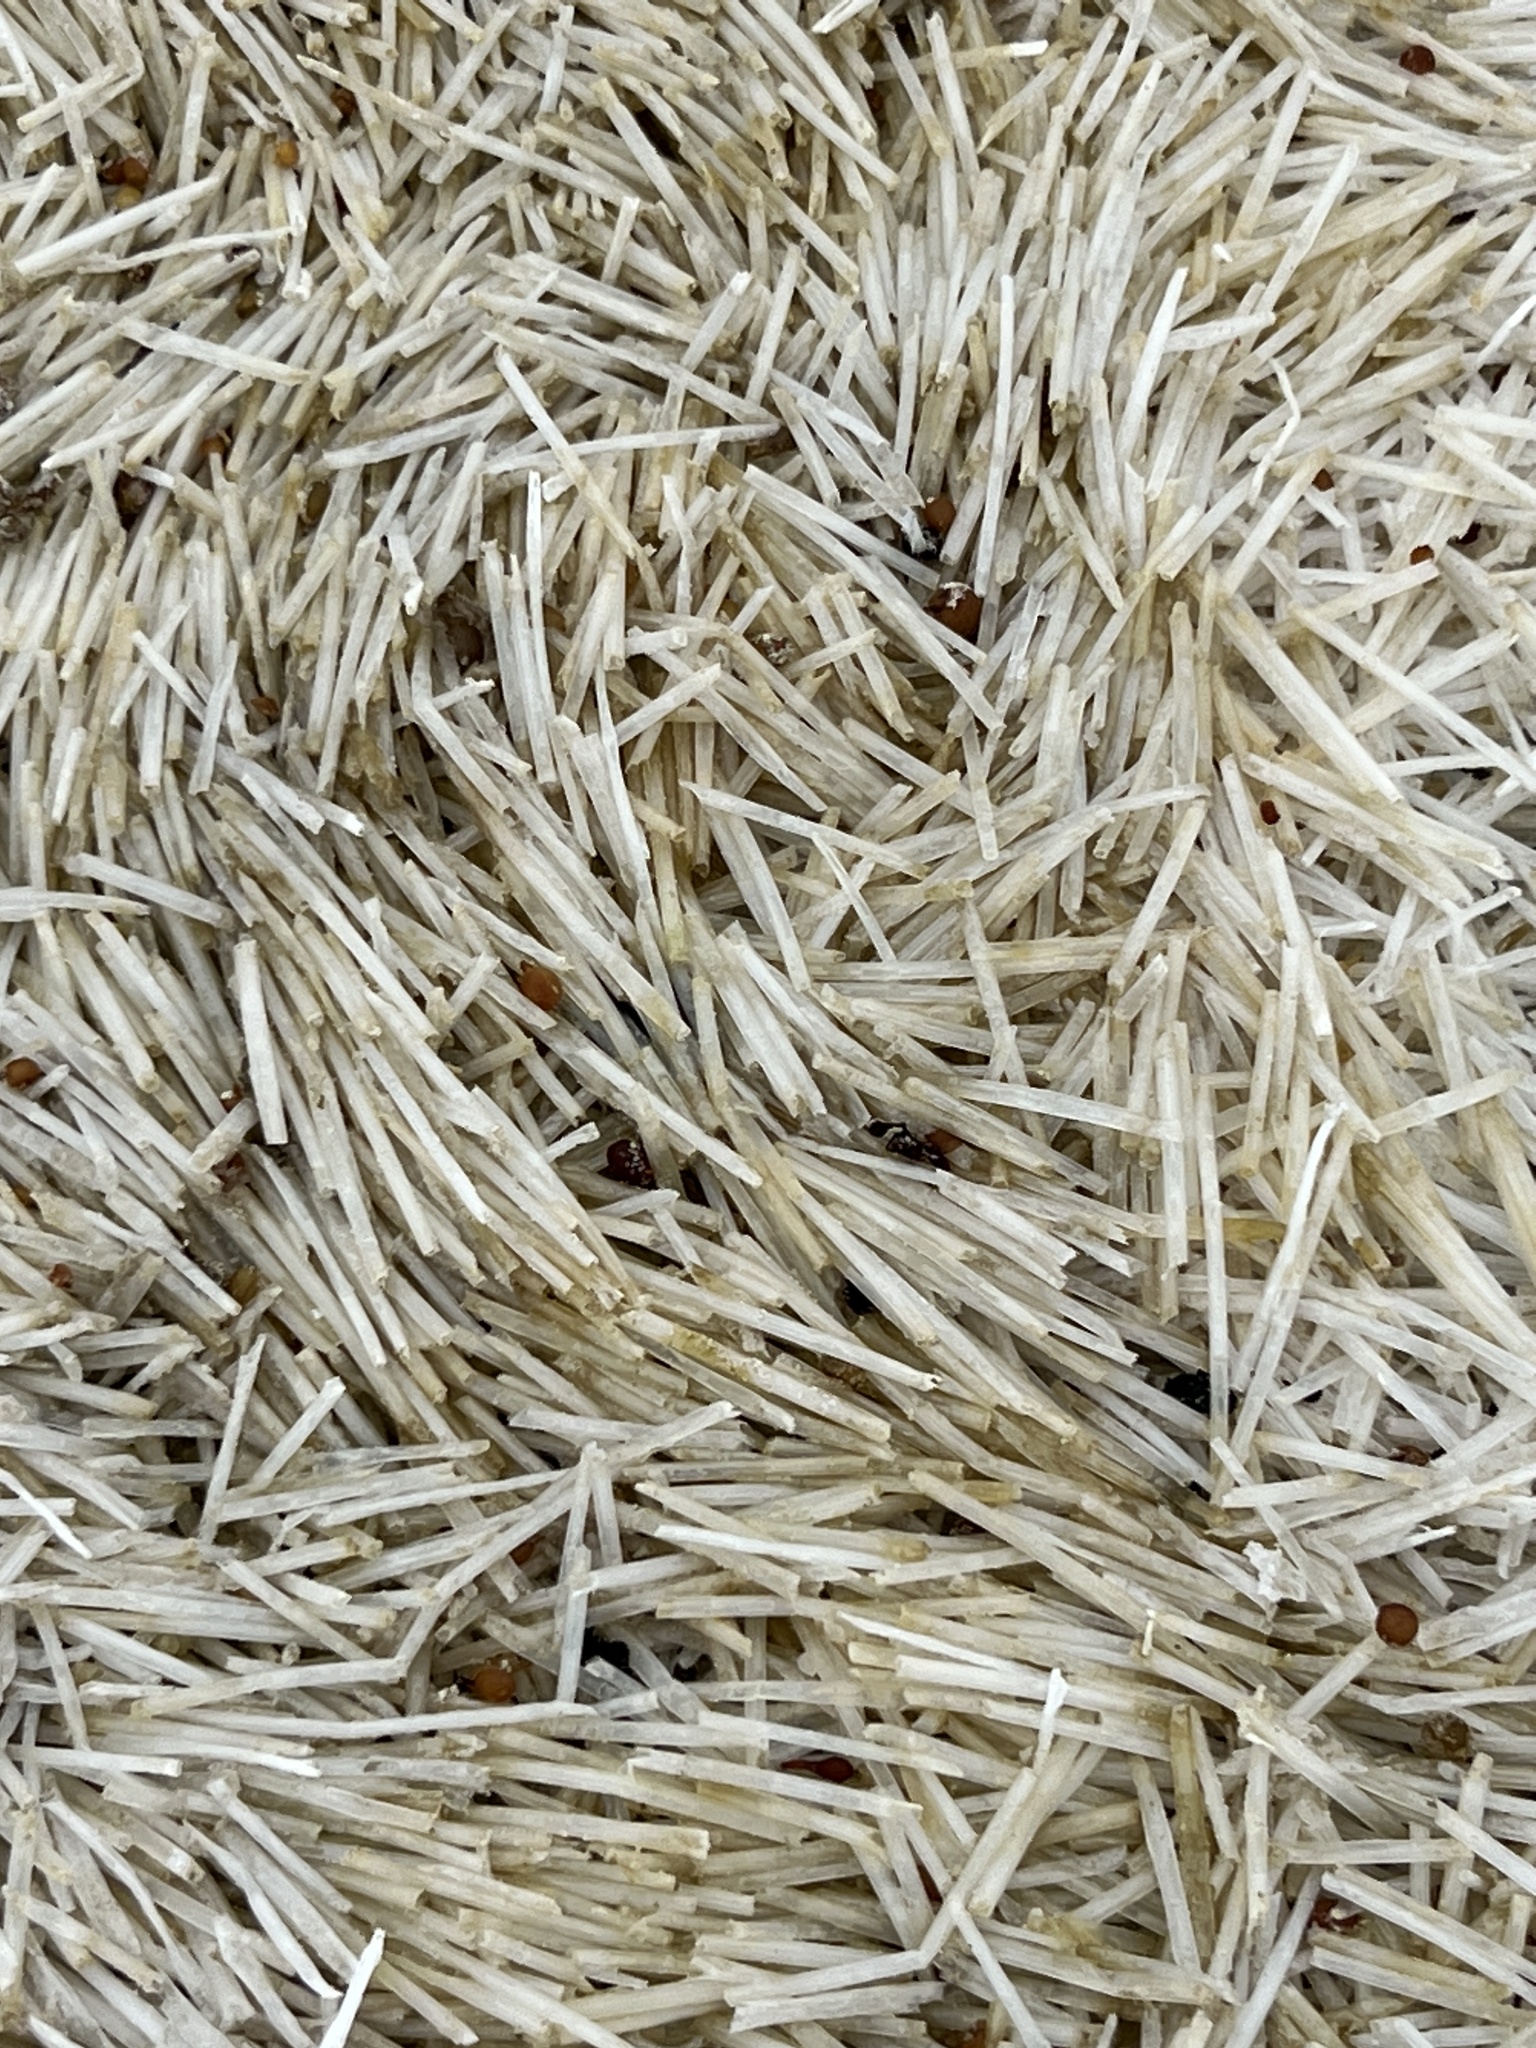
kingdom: Plantae
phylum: Tracheophyta
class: Liliopsida
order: Alismatales
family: Cymodoceaceae
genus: Syringodium
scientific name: Syringodium filiforme
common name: Manatee grass
